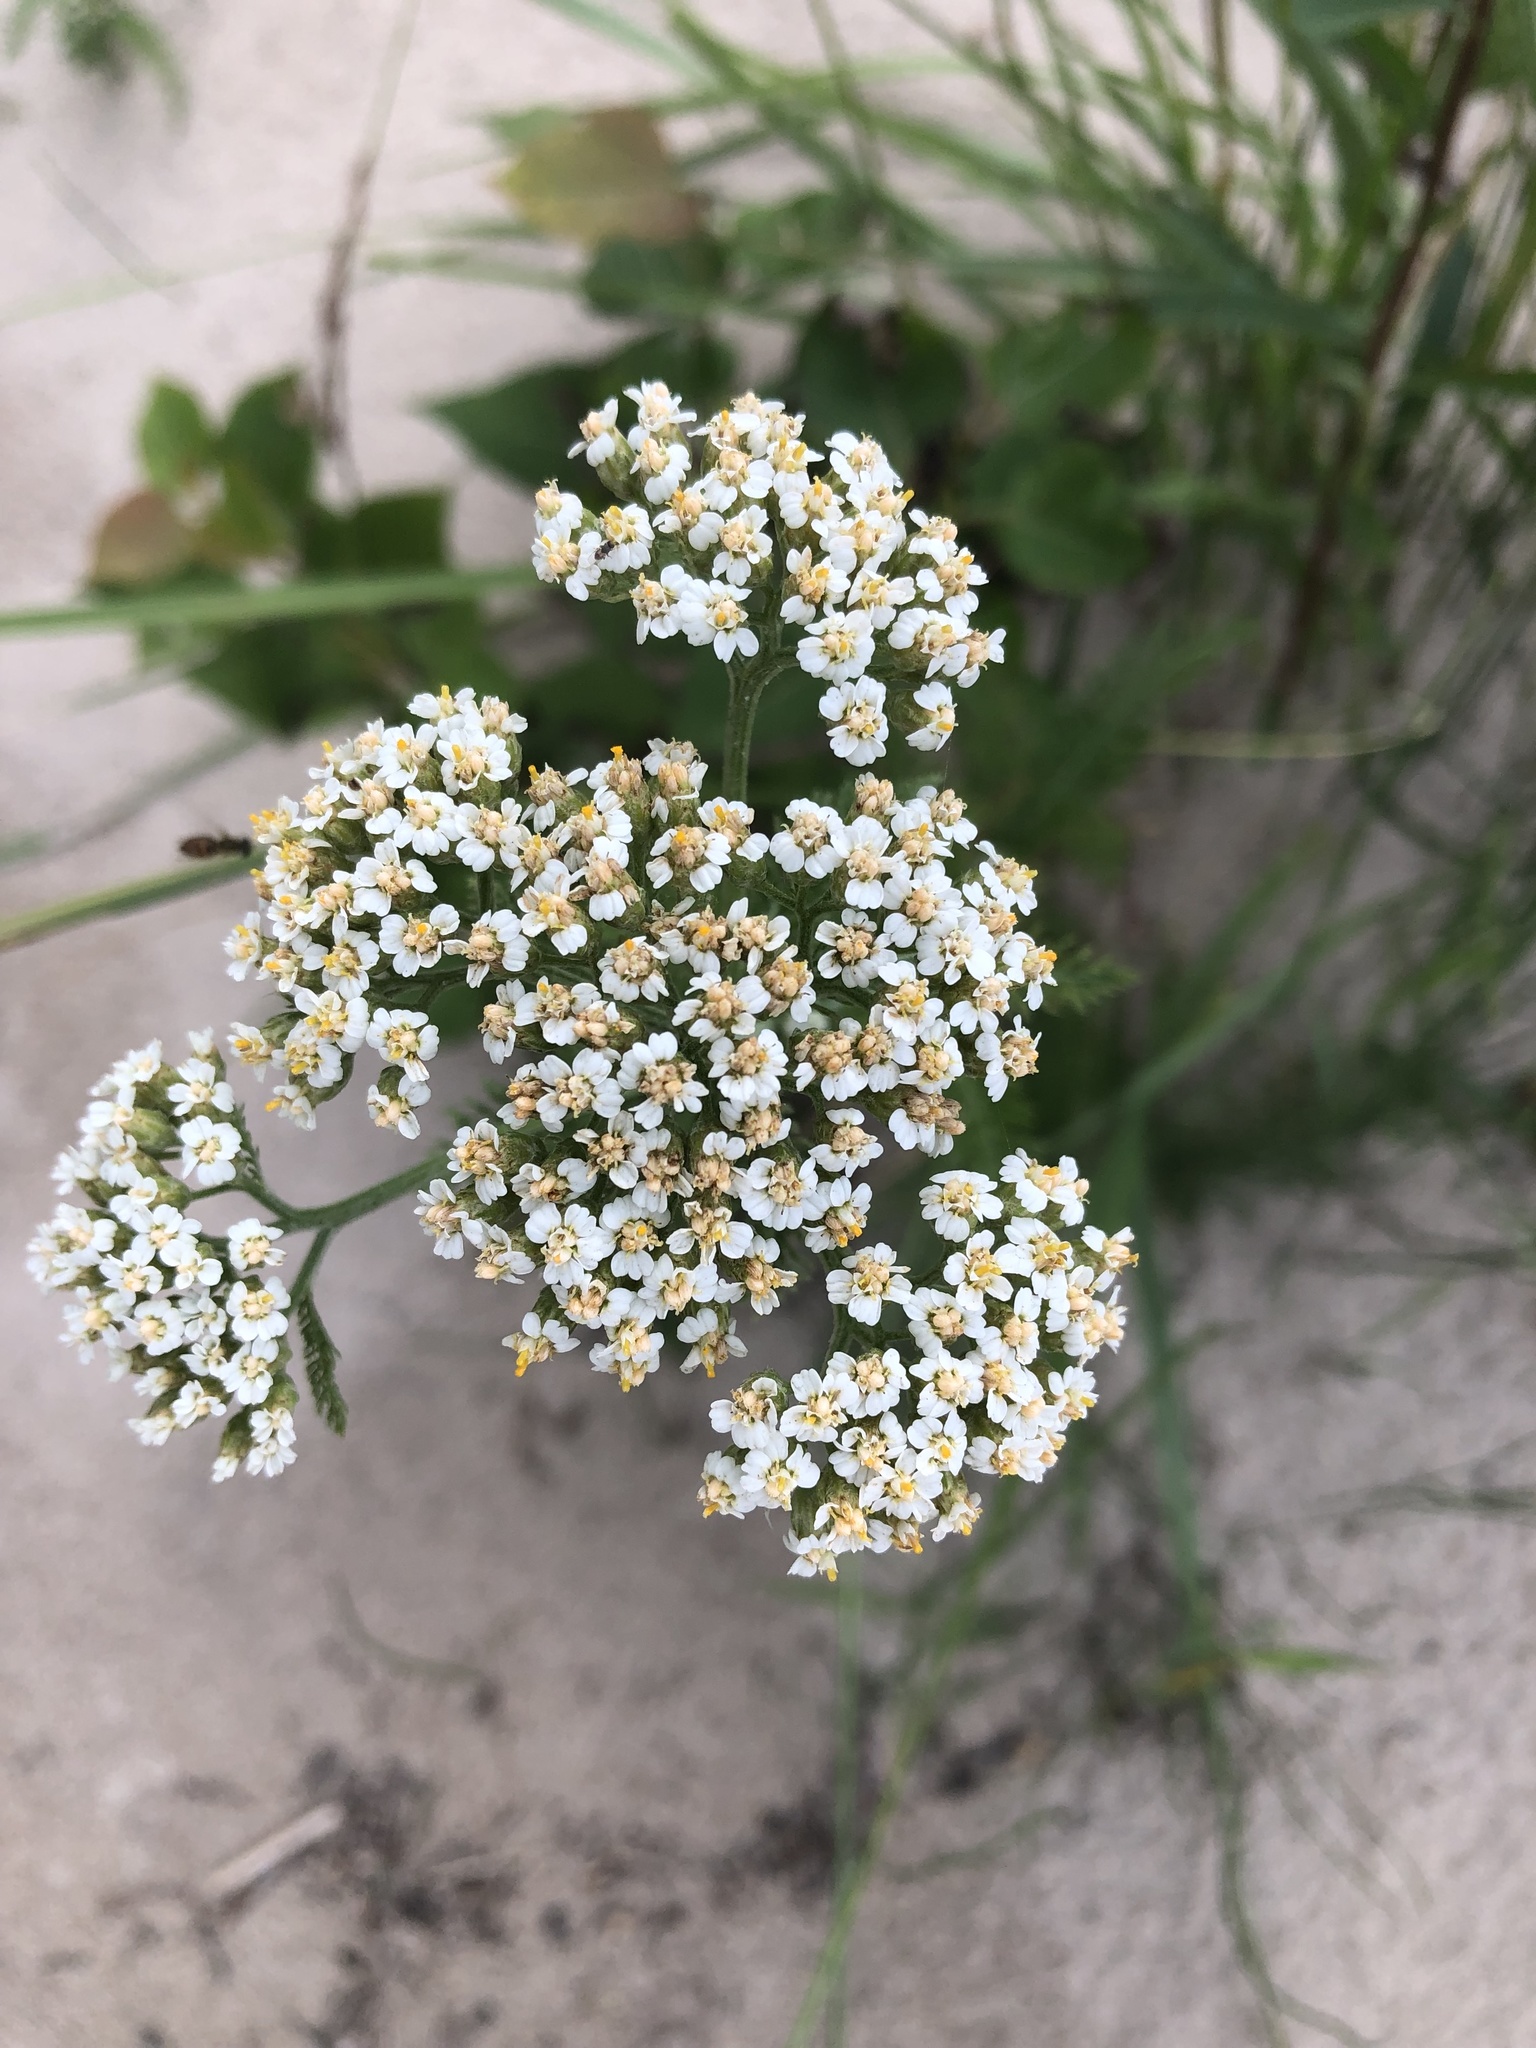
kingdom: Plantae
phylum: Tracheophyta
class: Magnoliopsida
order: Asterales
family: Asteraceae
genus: Achillea
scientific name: Achillea millefolium
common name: Yarrow
